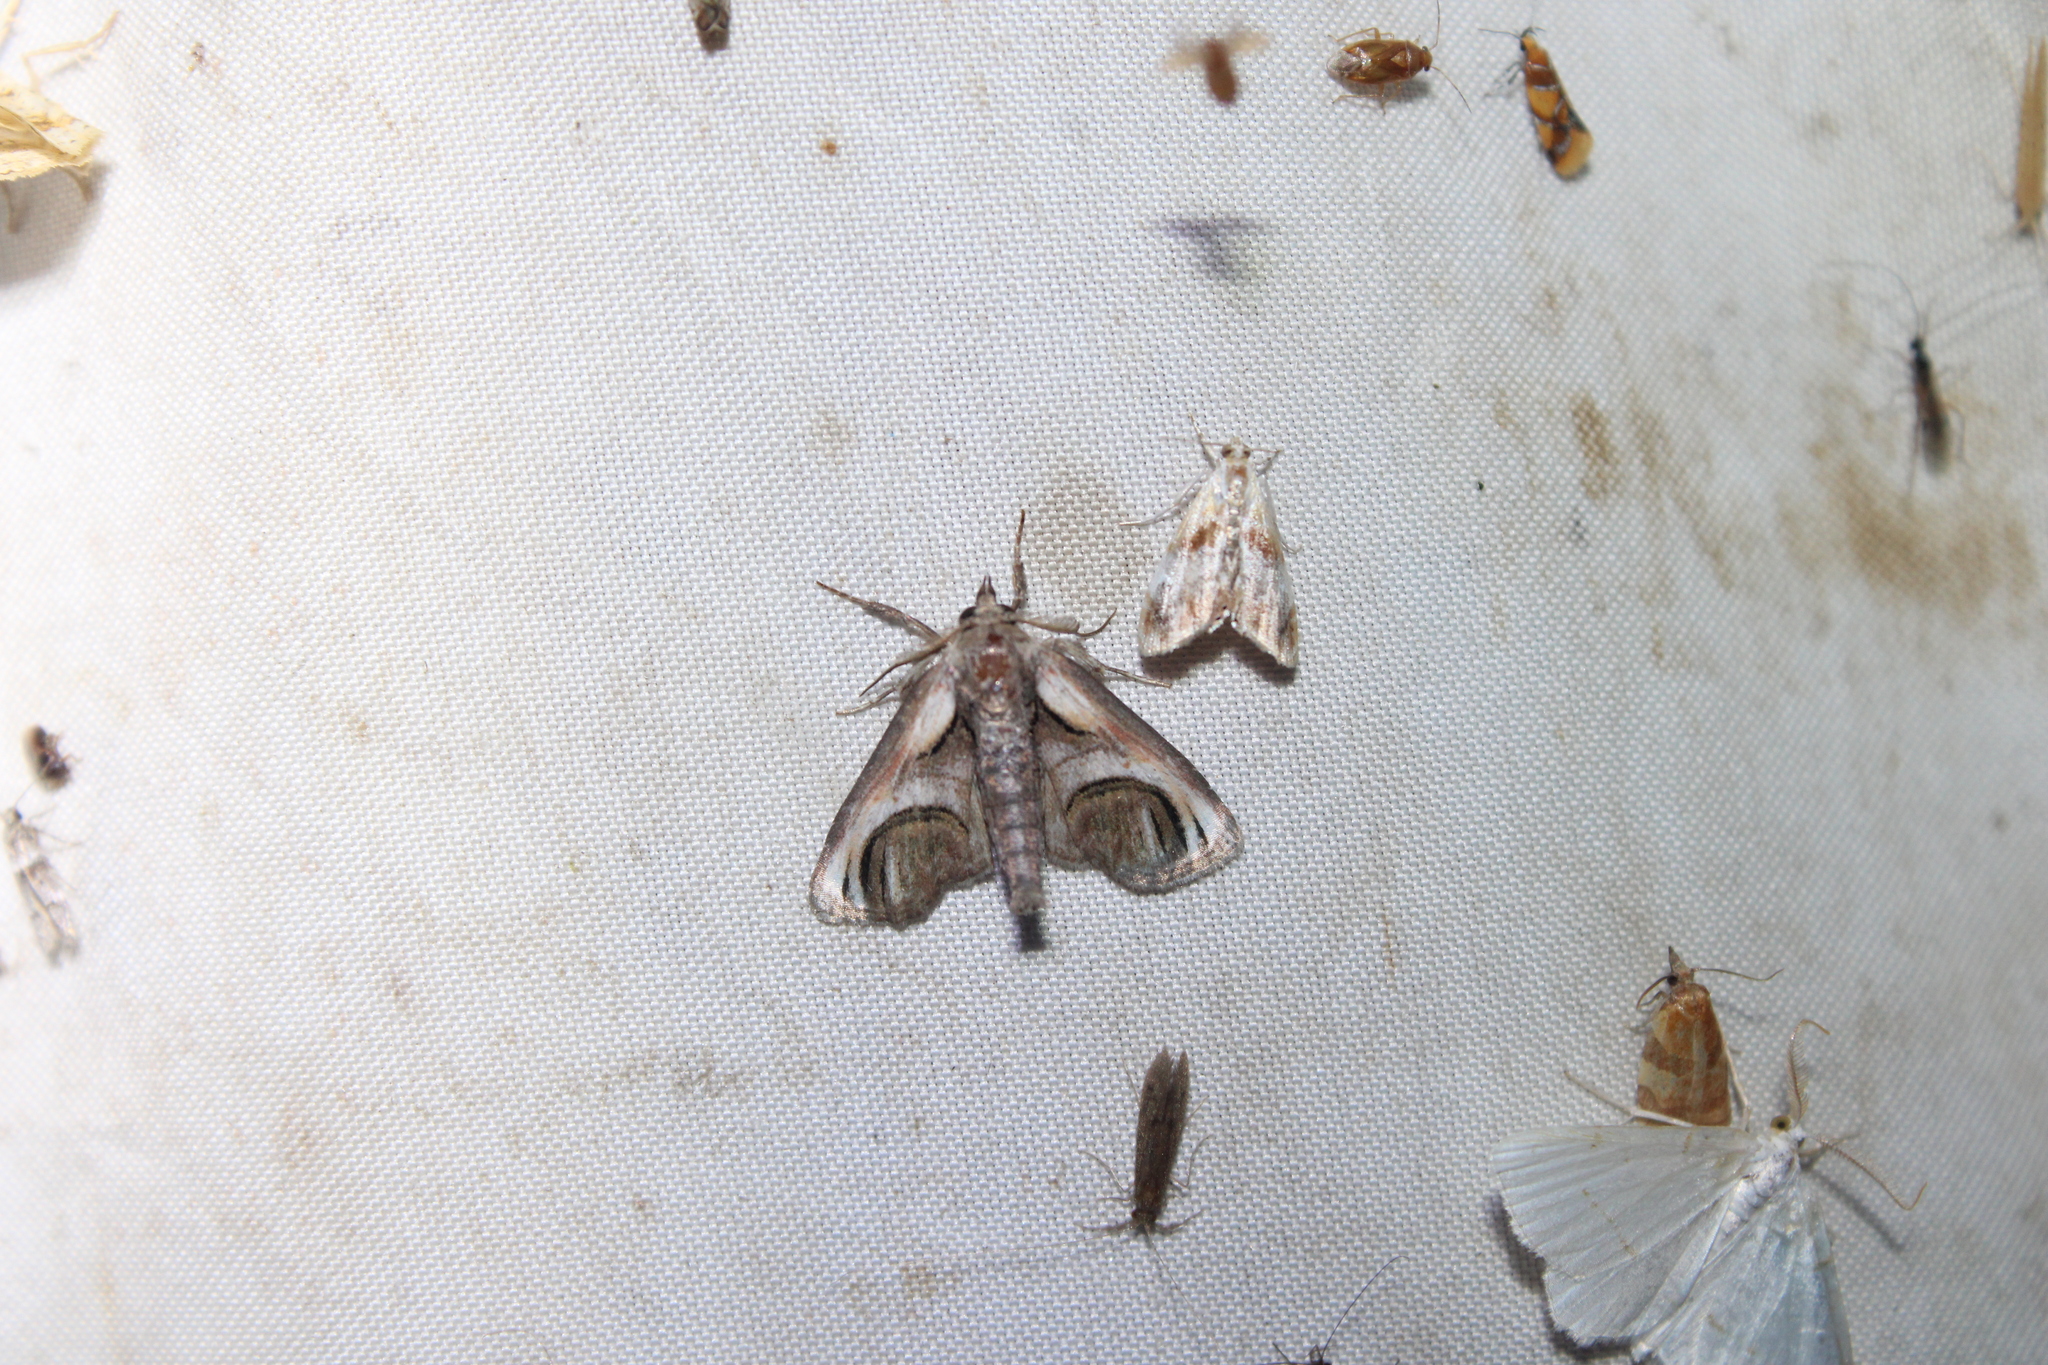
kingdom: Animalia
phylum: Arthropoda
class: Insecta
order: Lepidoptera
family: Euteliidae
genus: Paectes
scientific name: Paectes oculatrix
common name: Eyed paectes moth
